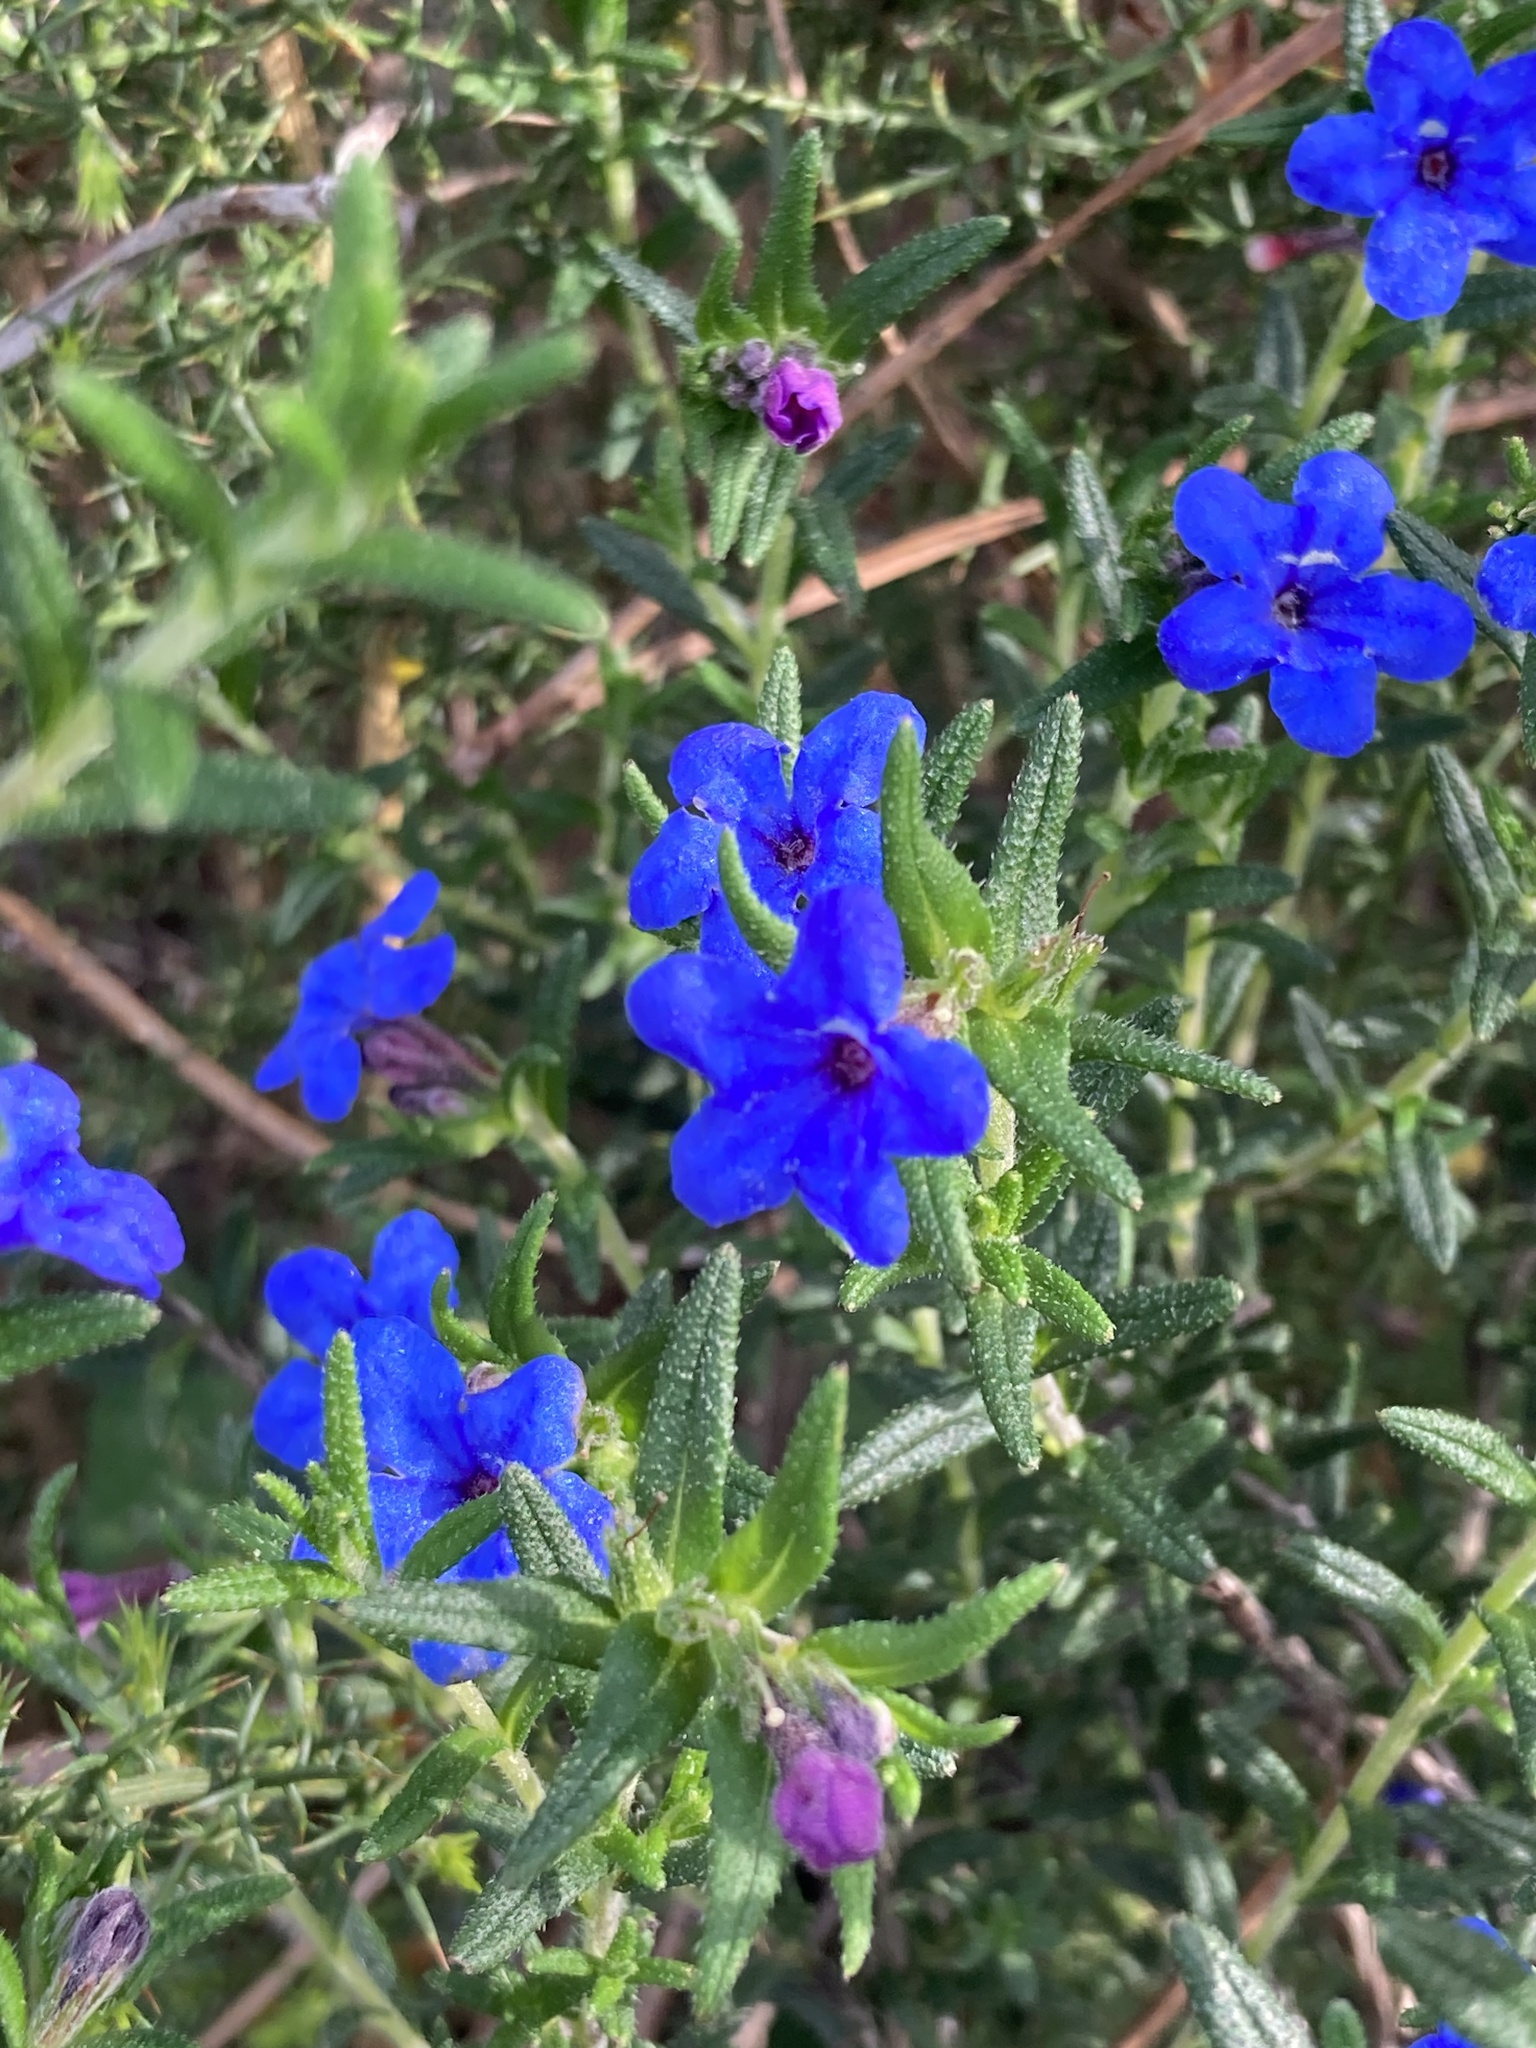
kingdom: Plantae
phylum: Tracheophyta
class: Magnoliopsida
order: Boraginales
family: Boraginaceae
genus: Glandora
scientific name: Glandora prostrata
